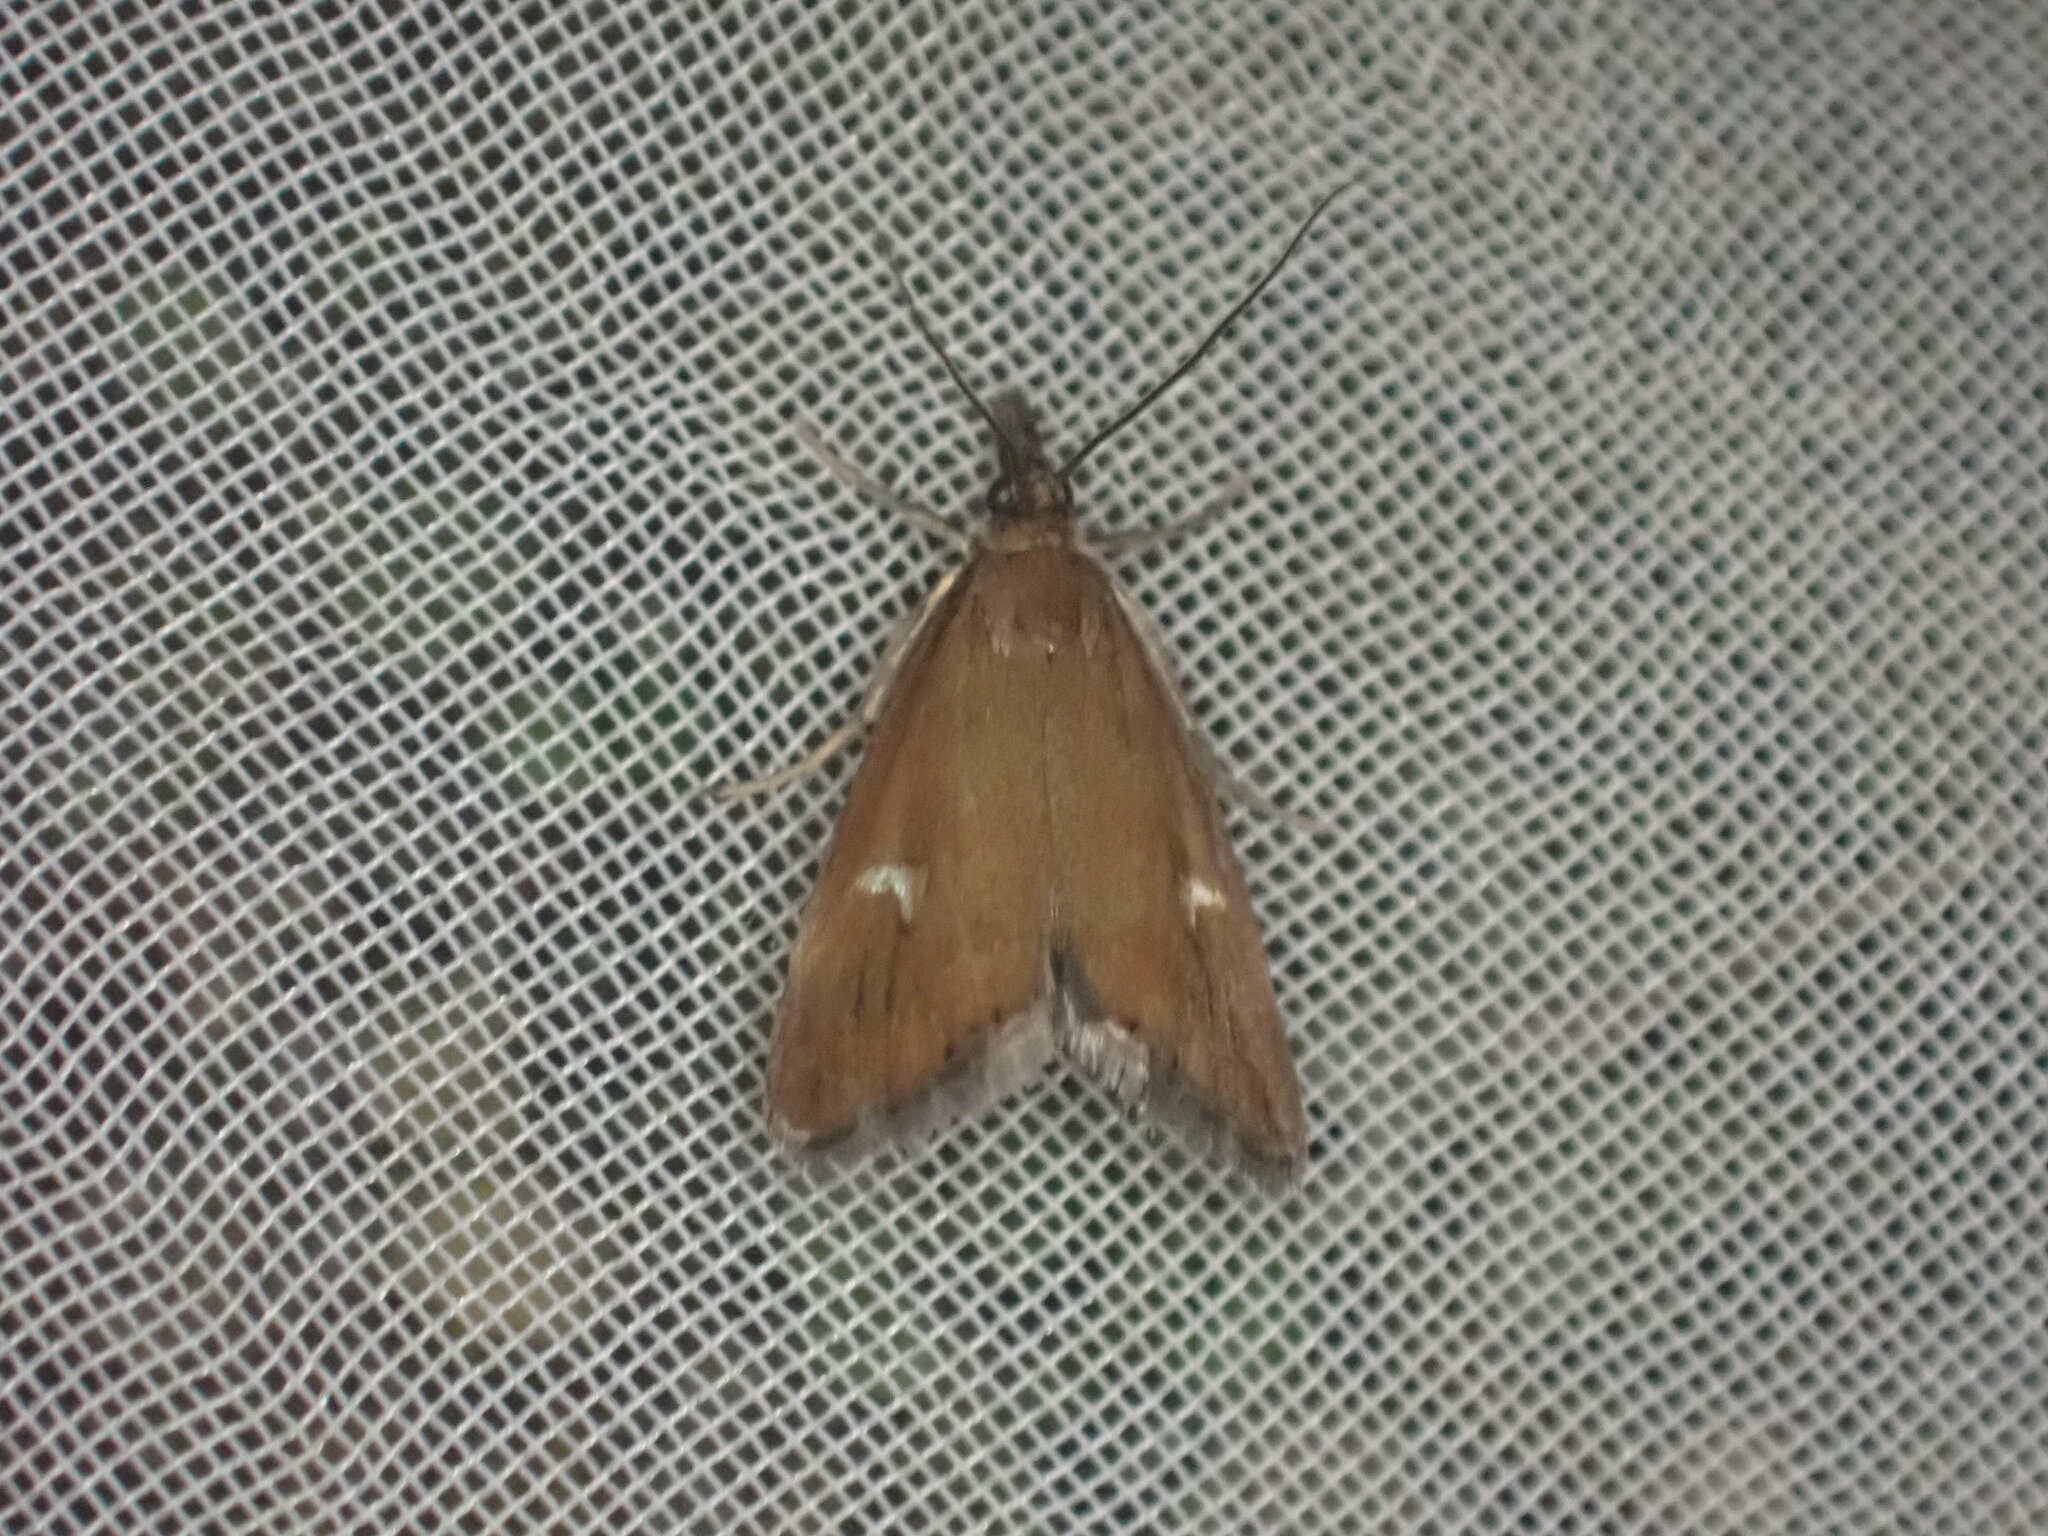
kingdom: Animalia
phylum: Arthropoda
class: Insecta
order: Lepidoptera
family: Crambidae
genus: Glaucocharis
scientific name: Glaucocharis helioctypa
